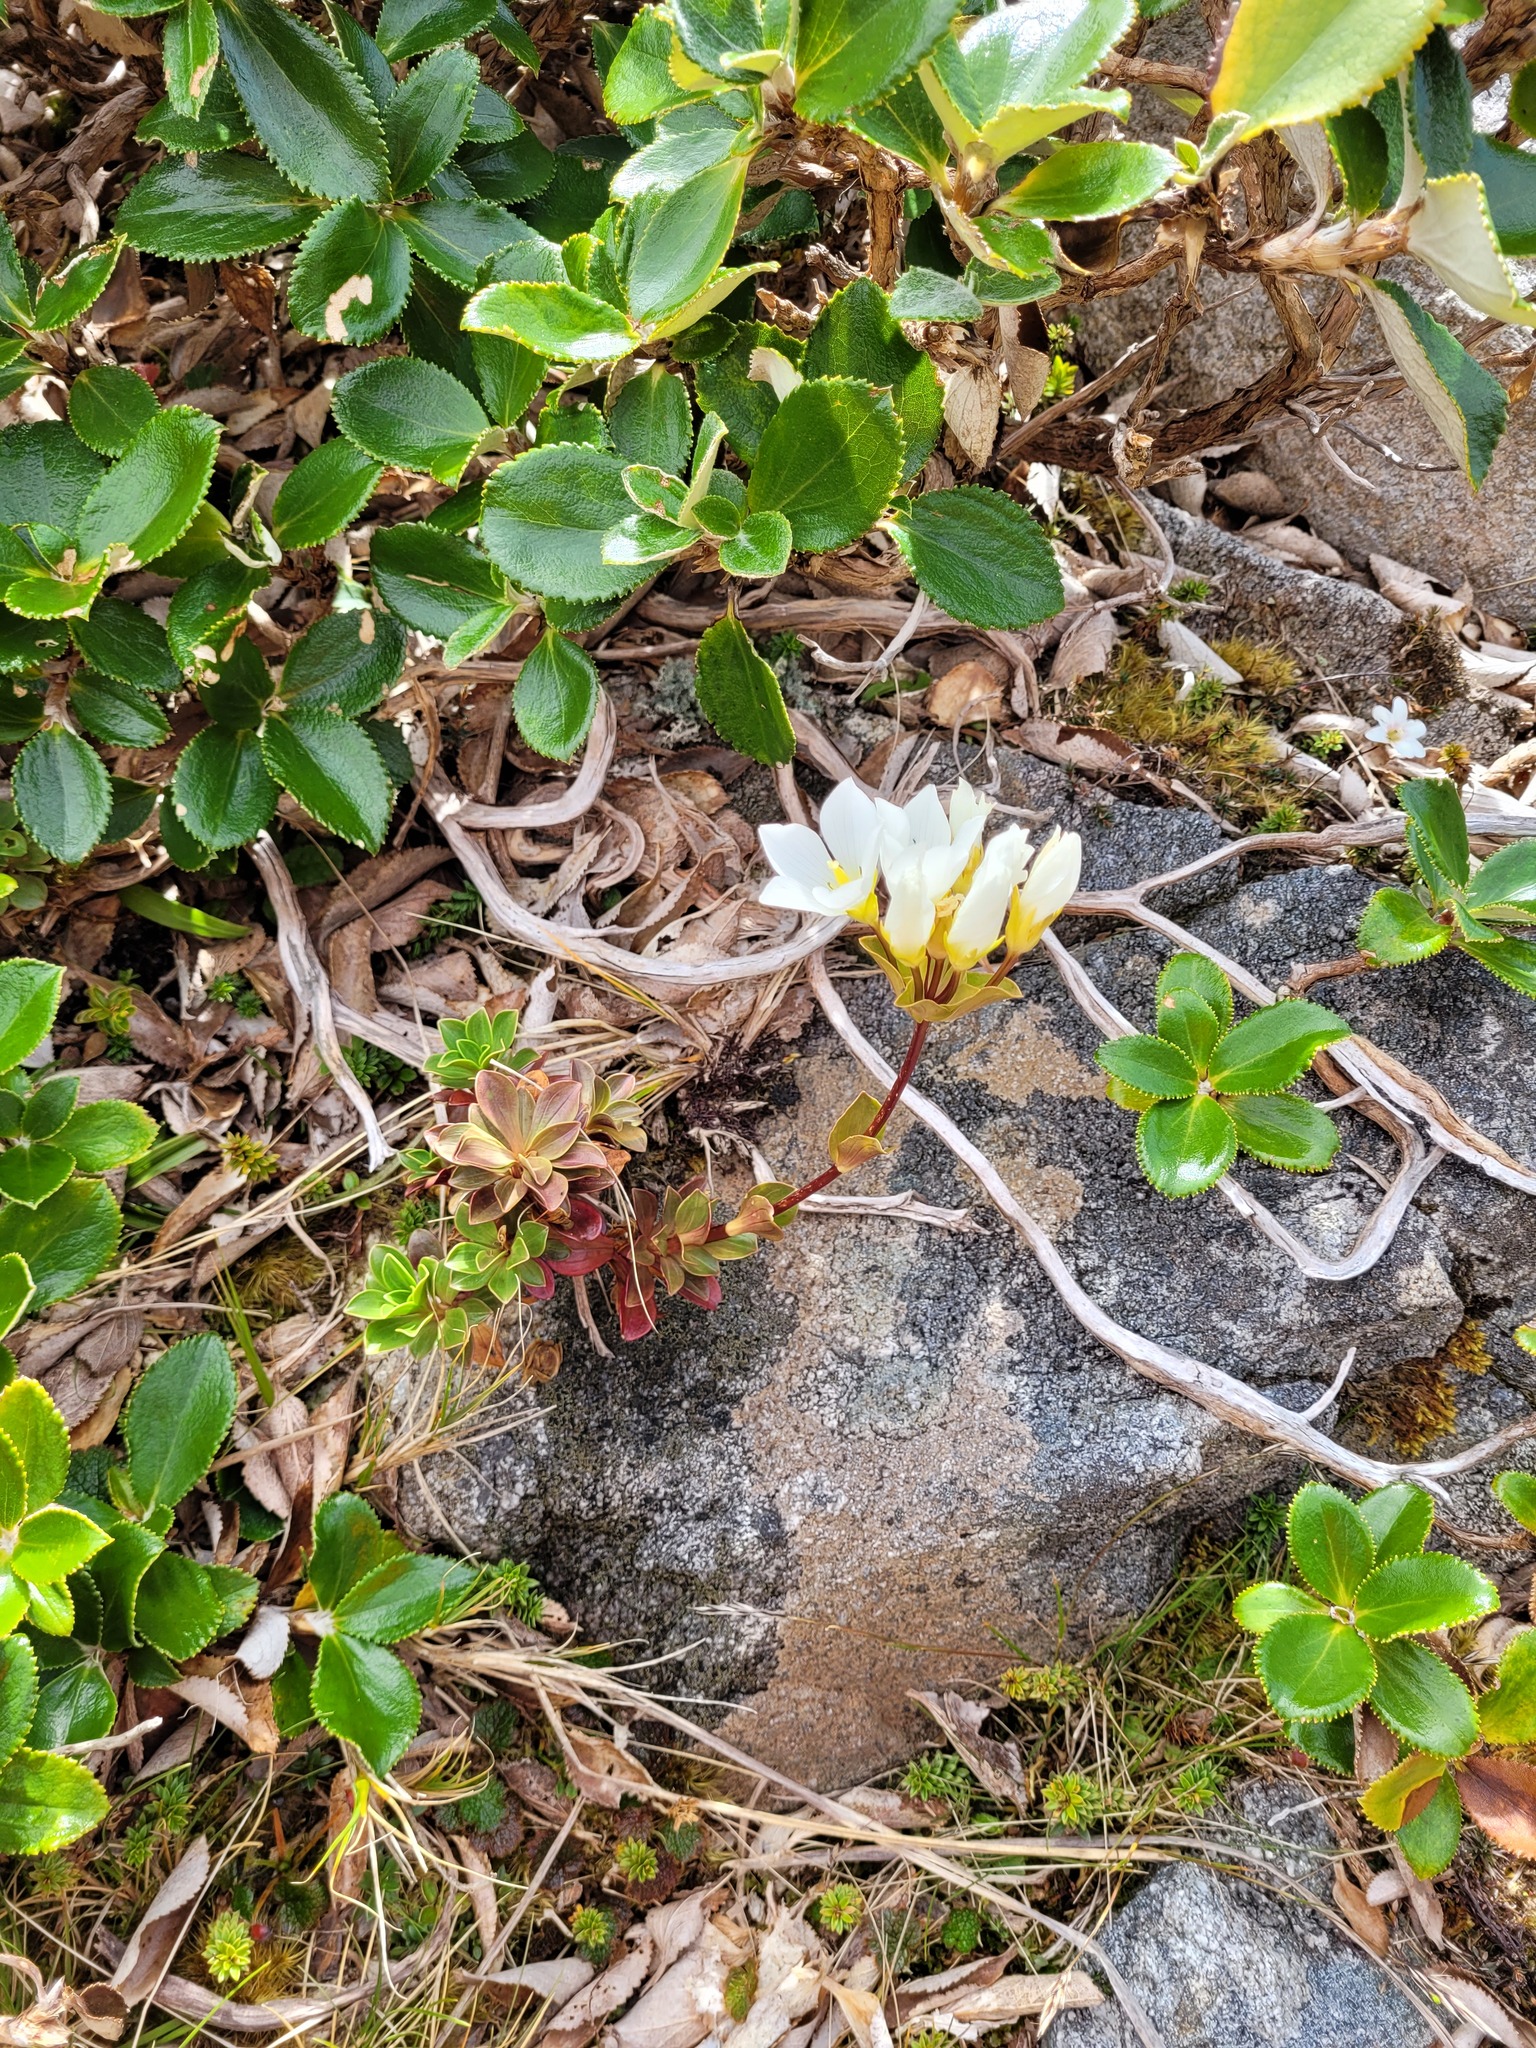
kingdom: Plantae
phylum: Tracheophyta
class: Magnoliopsida
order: Gentianales
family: Gentianaceae
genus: Gentianella
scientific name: Gentianella impressinervia
